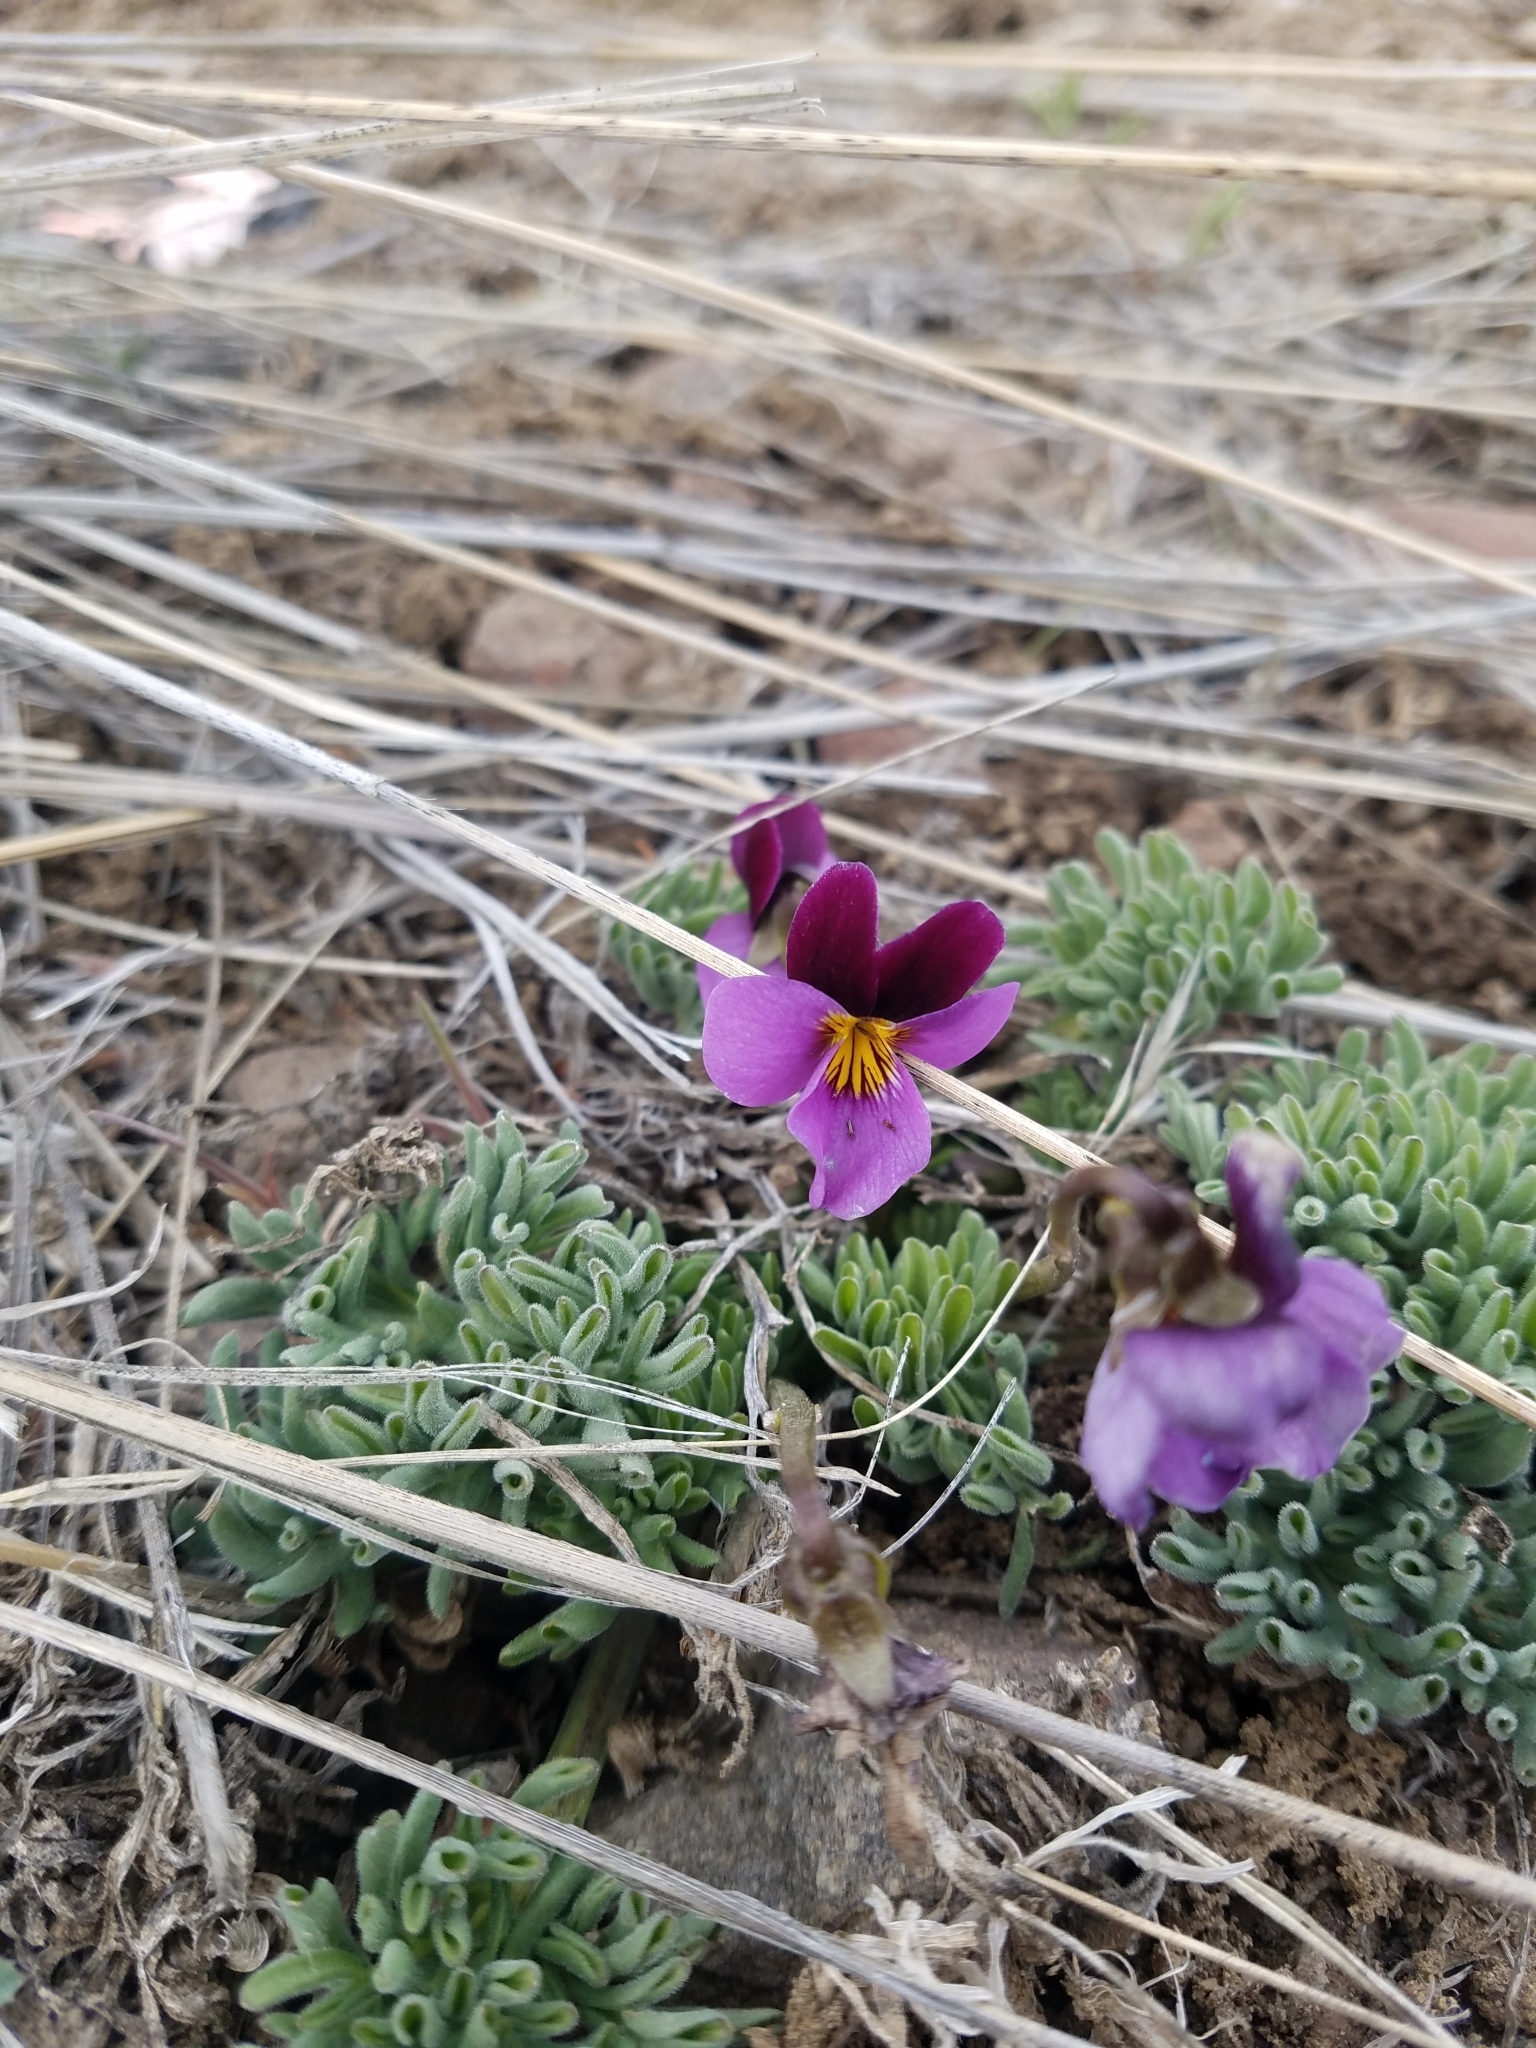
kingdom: Plantae
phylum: Tracheophyta
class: Magnoliopsida
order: Malpighiales
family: Violaceae
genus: Viola
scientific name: Viola beckwithii
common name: Beckwith's violet
